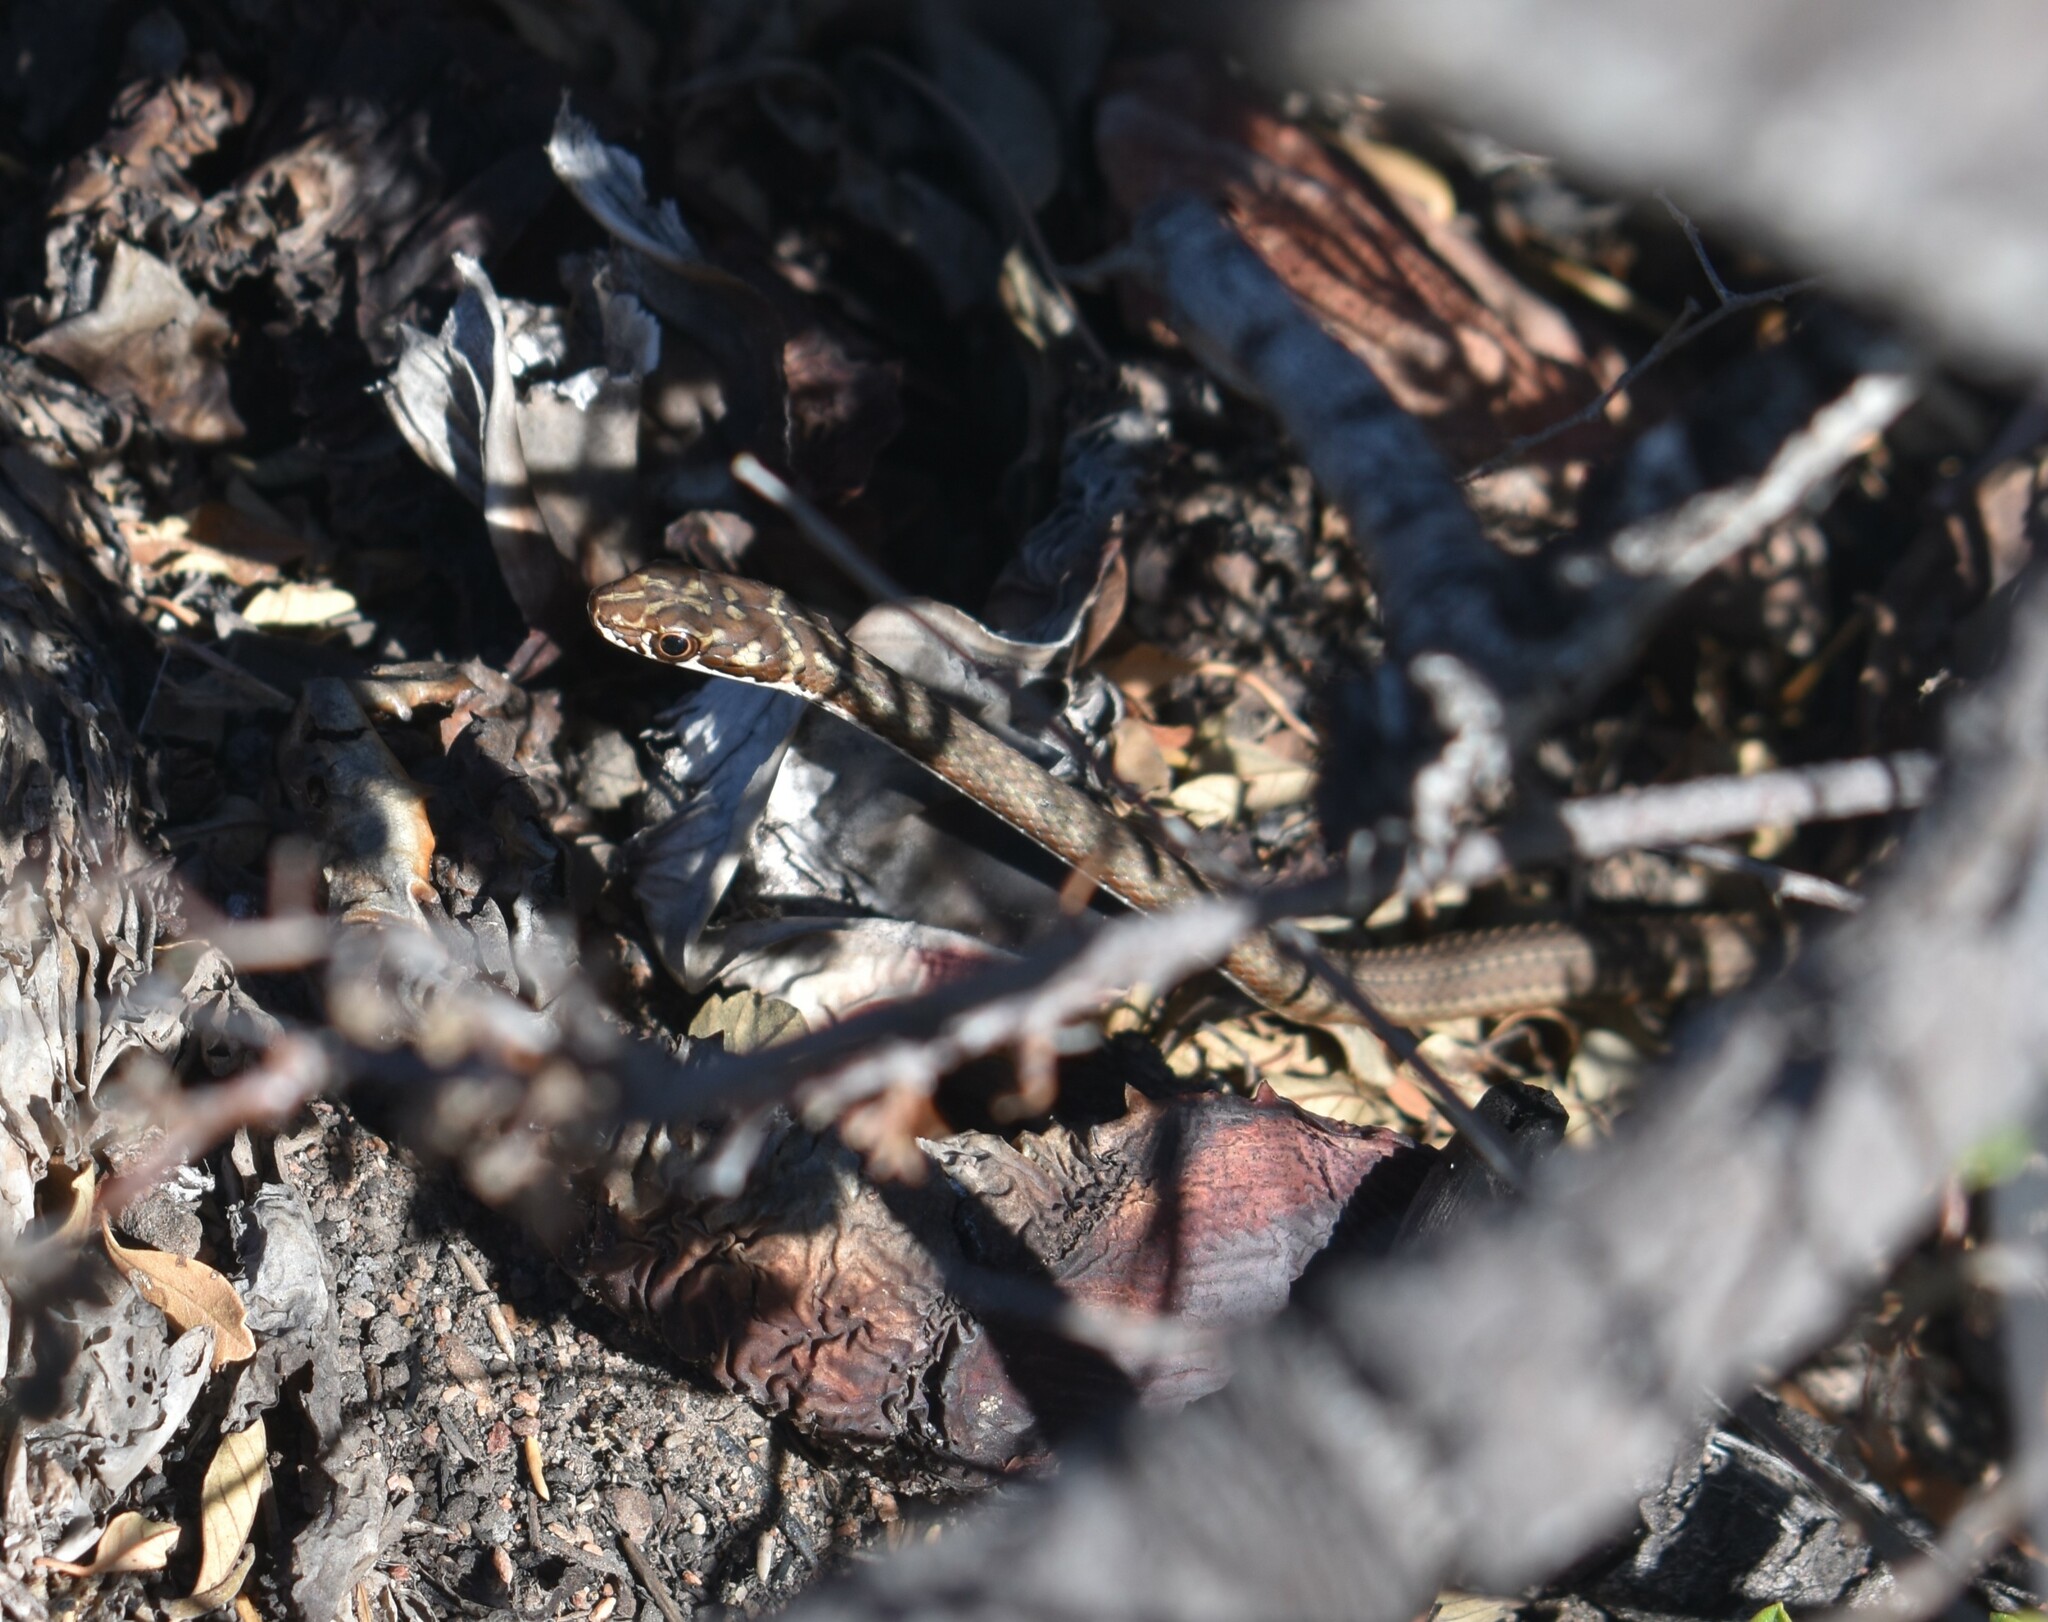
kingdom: Animalia
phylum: Chordata
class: Squamata
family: Psammophiidae
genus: Psammophis
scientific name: Psammophis notostictus
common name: Karoo sand snake
